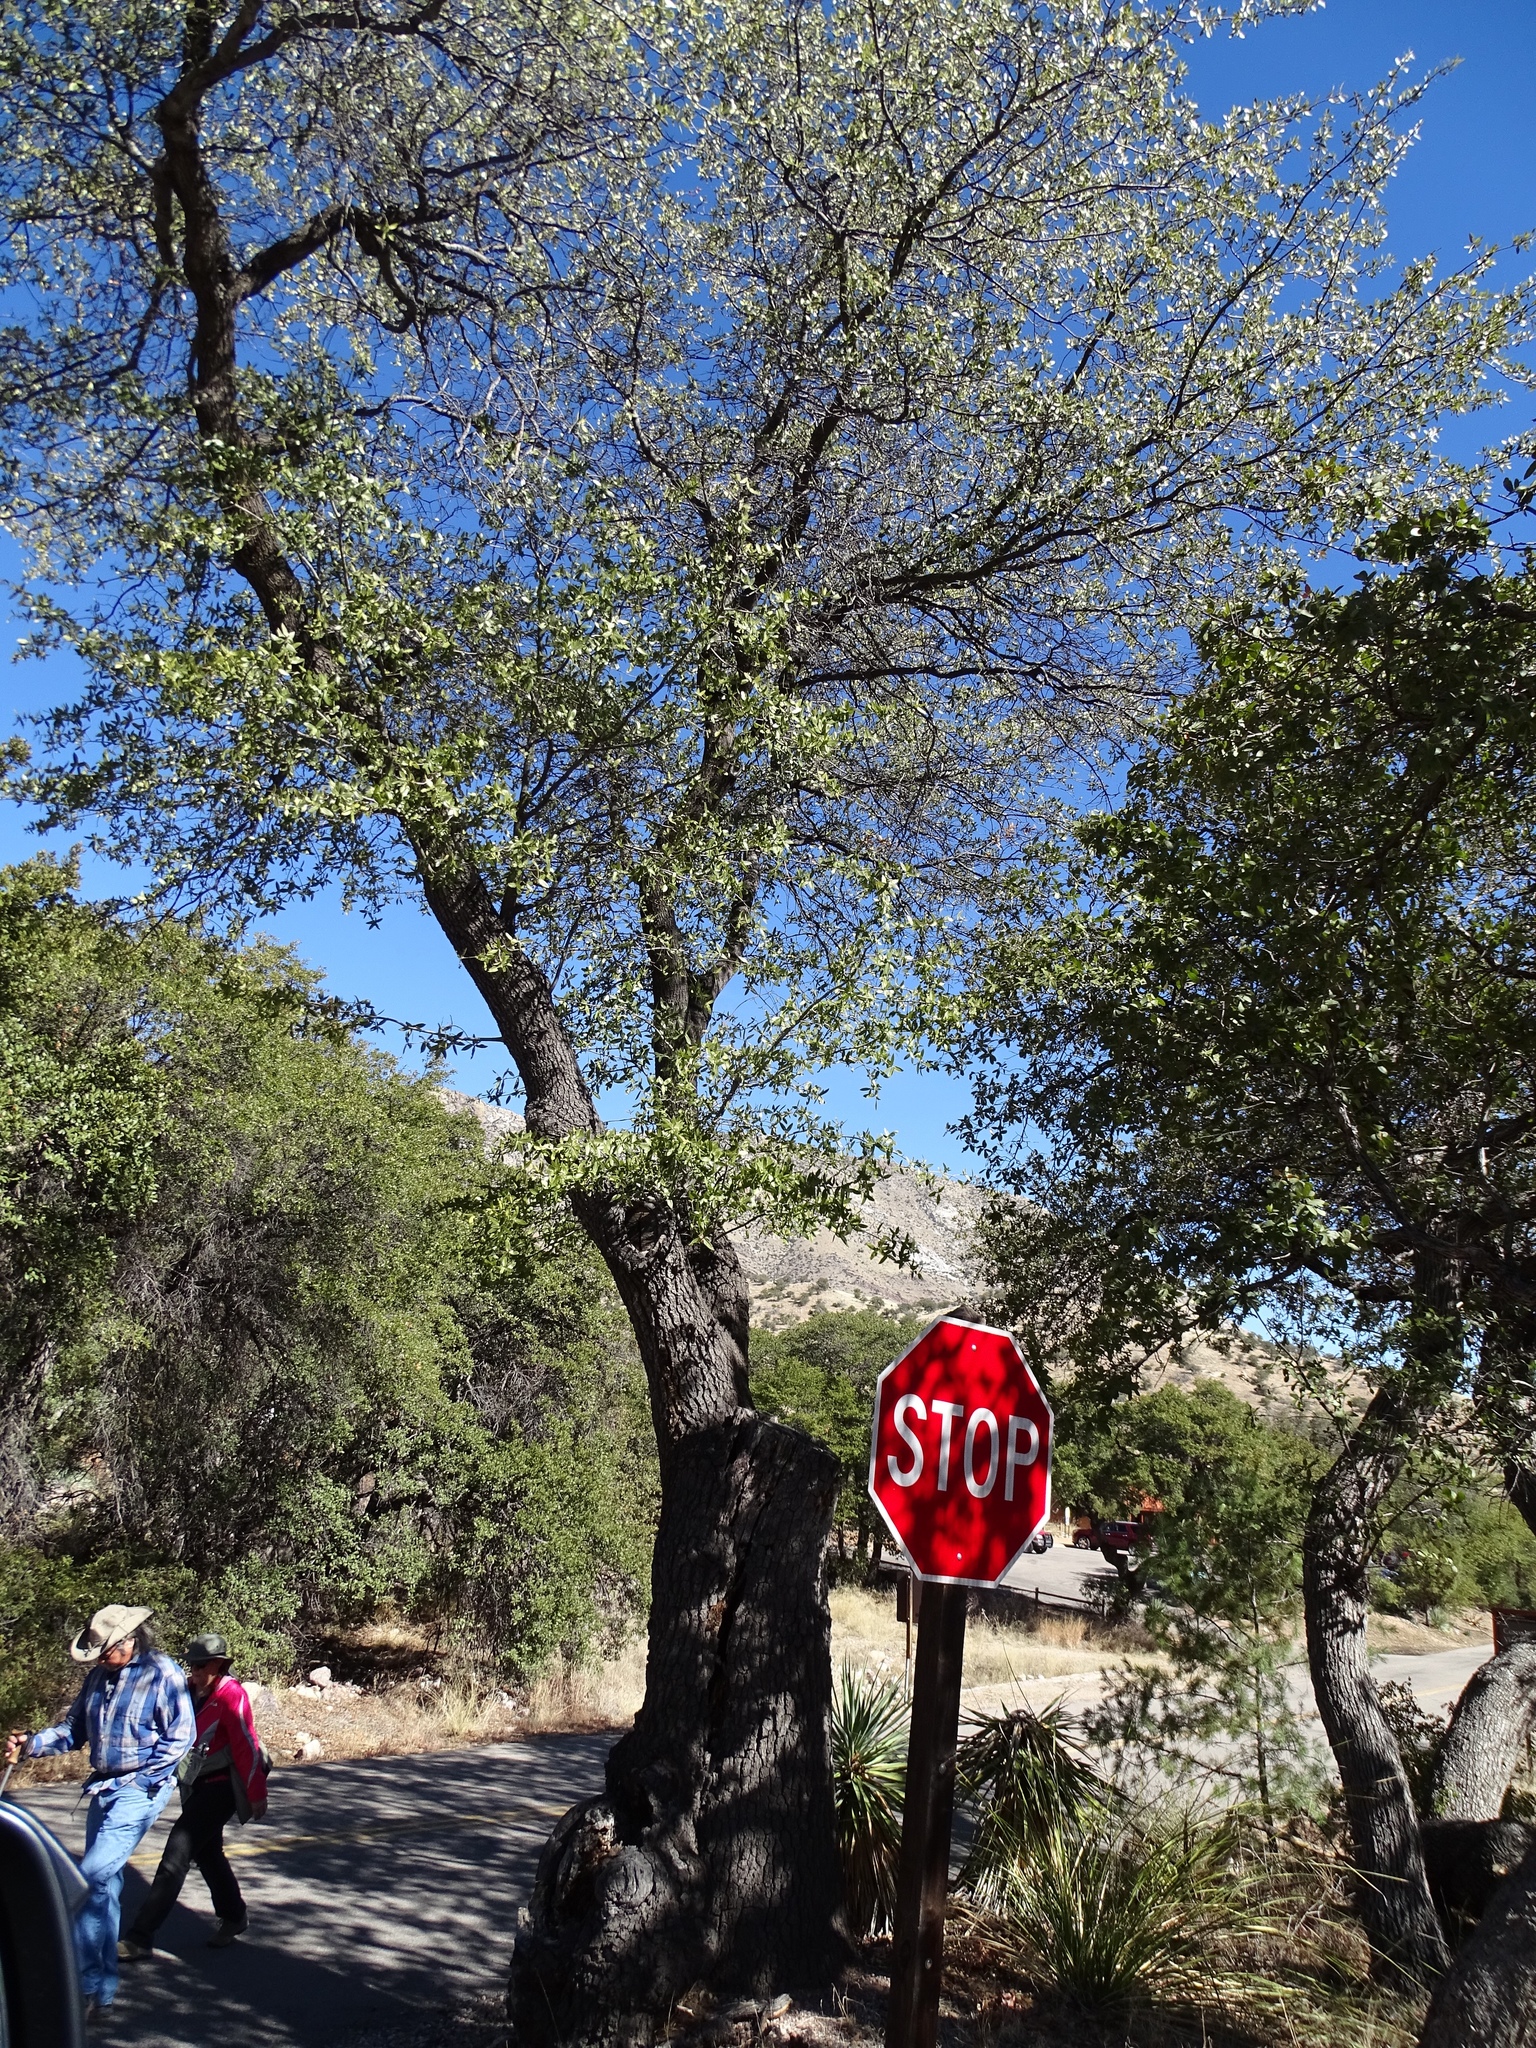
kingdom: Plantae
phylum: Tracheophyta
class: Magnoliopsida
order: Fagales
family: Fagaceae
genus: Quercus
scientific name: Quercus emoryi
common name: Emory oak
